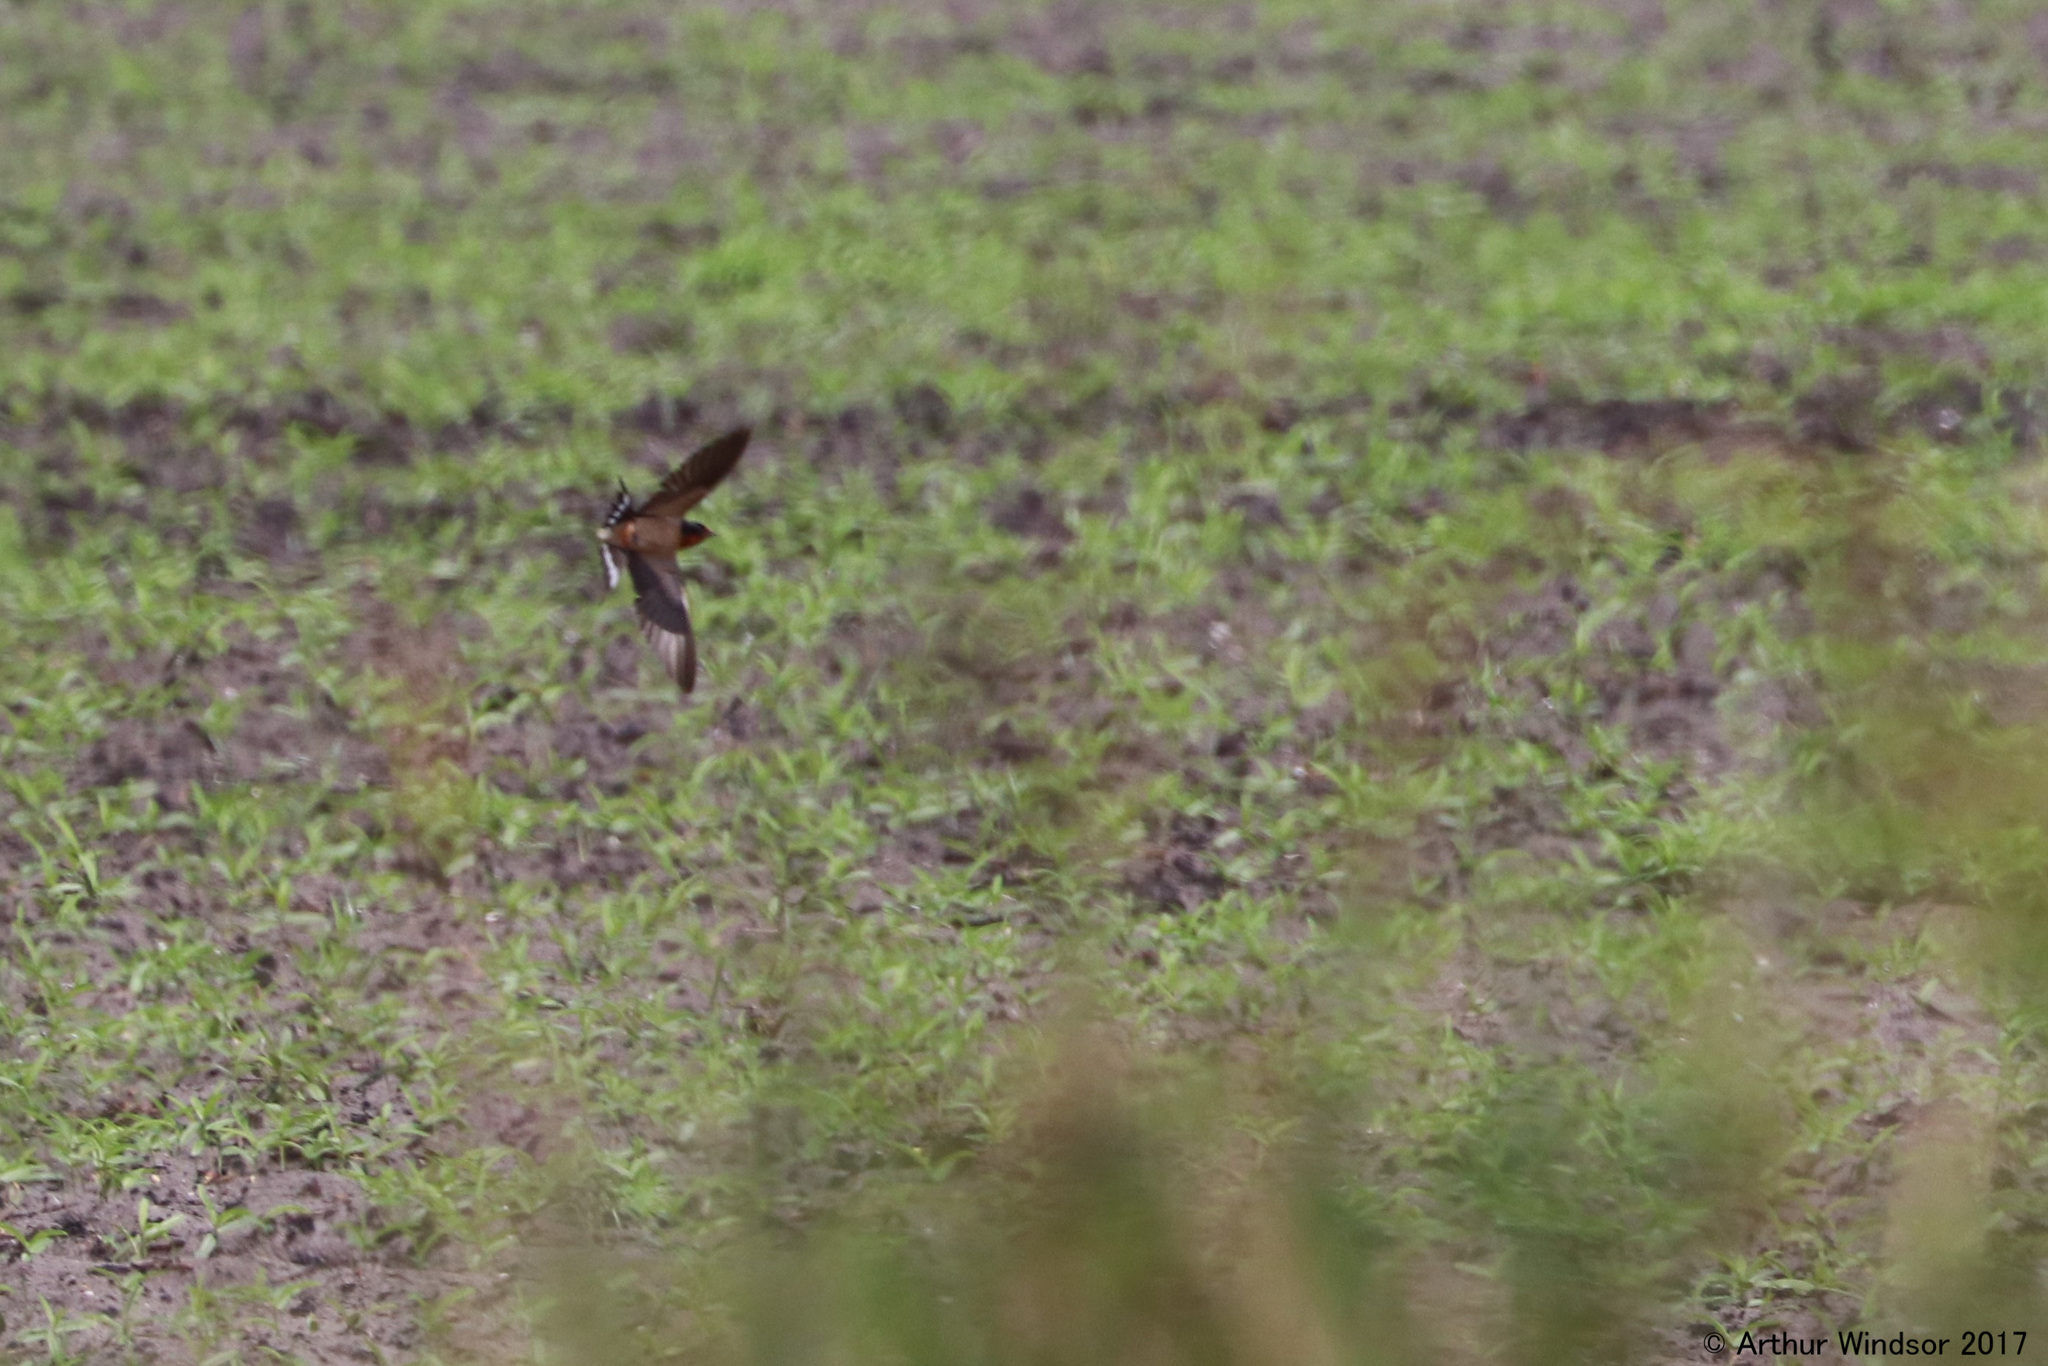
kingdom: Animalia
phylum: Chordata
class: Aves
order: Passeriformes
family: Hirundinidae
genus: Hirundo
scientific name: Hirundo rustica
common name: Barn swallow
